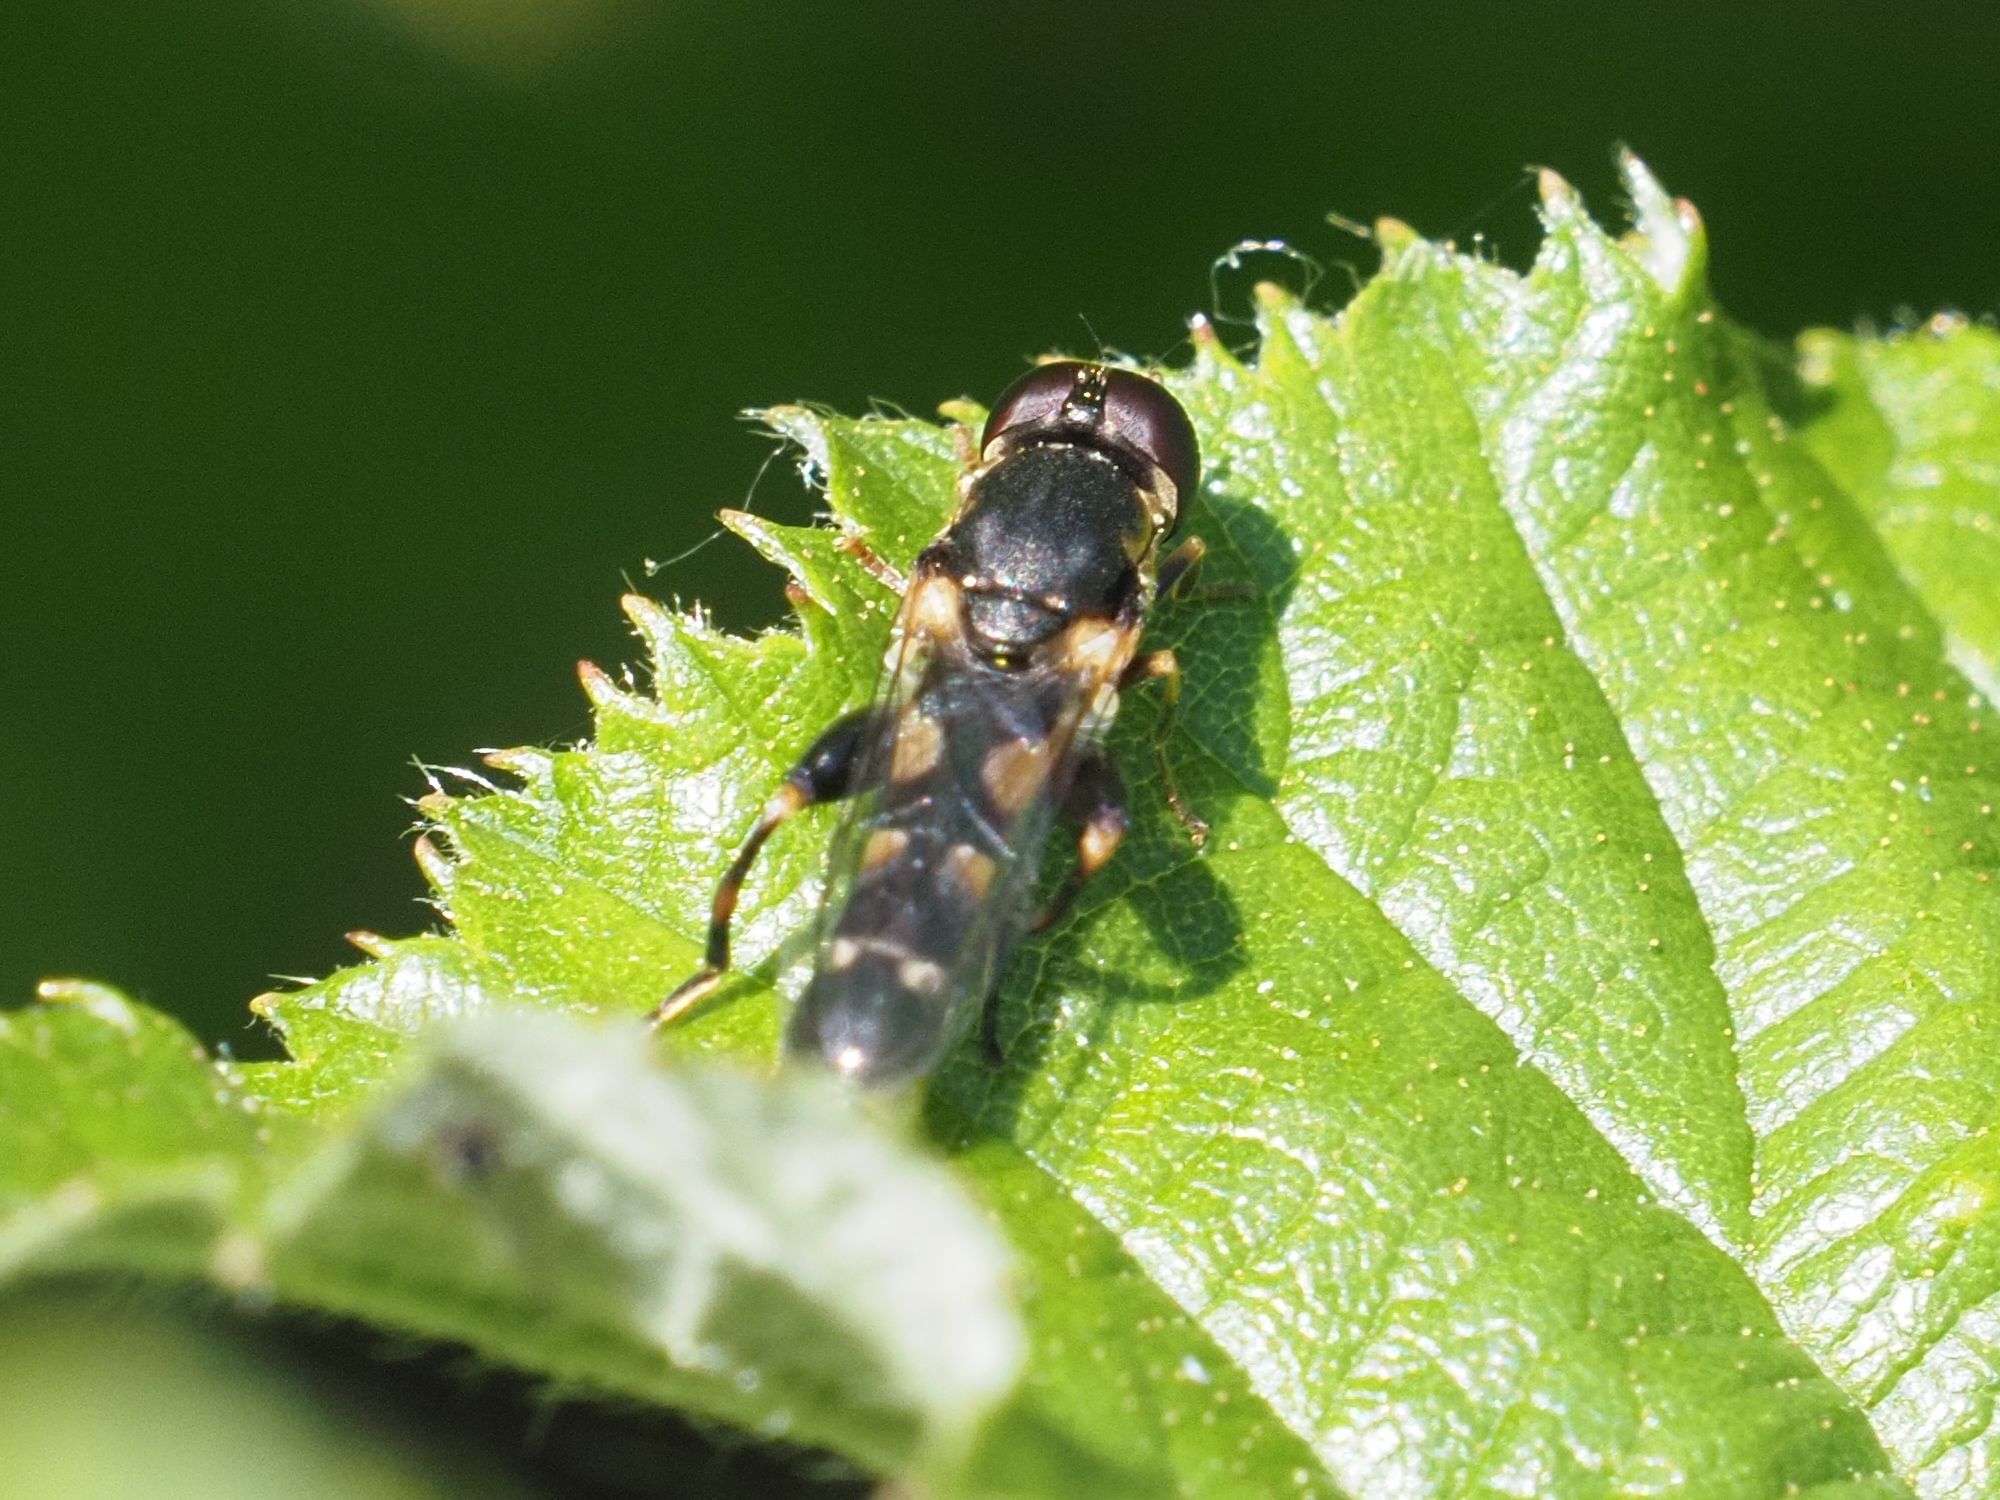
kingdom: Animalia
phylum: Arthropoda
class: Insecta
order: Diptera
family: Syrphidae
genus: Syritta
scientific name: Syritta pipiens
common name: Hover fly
